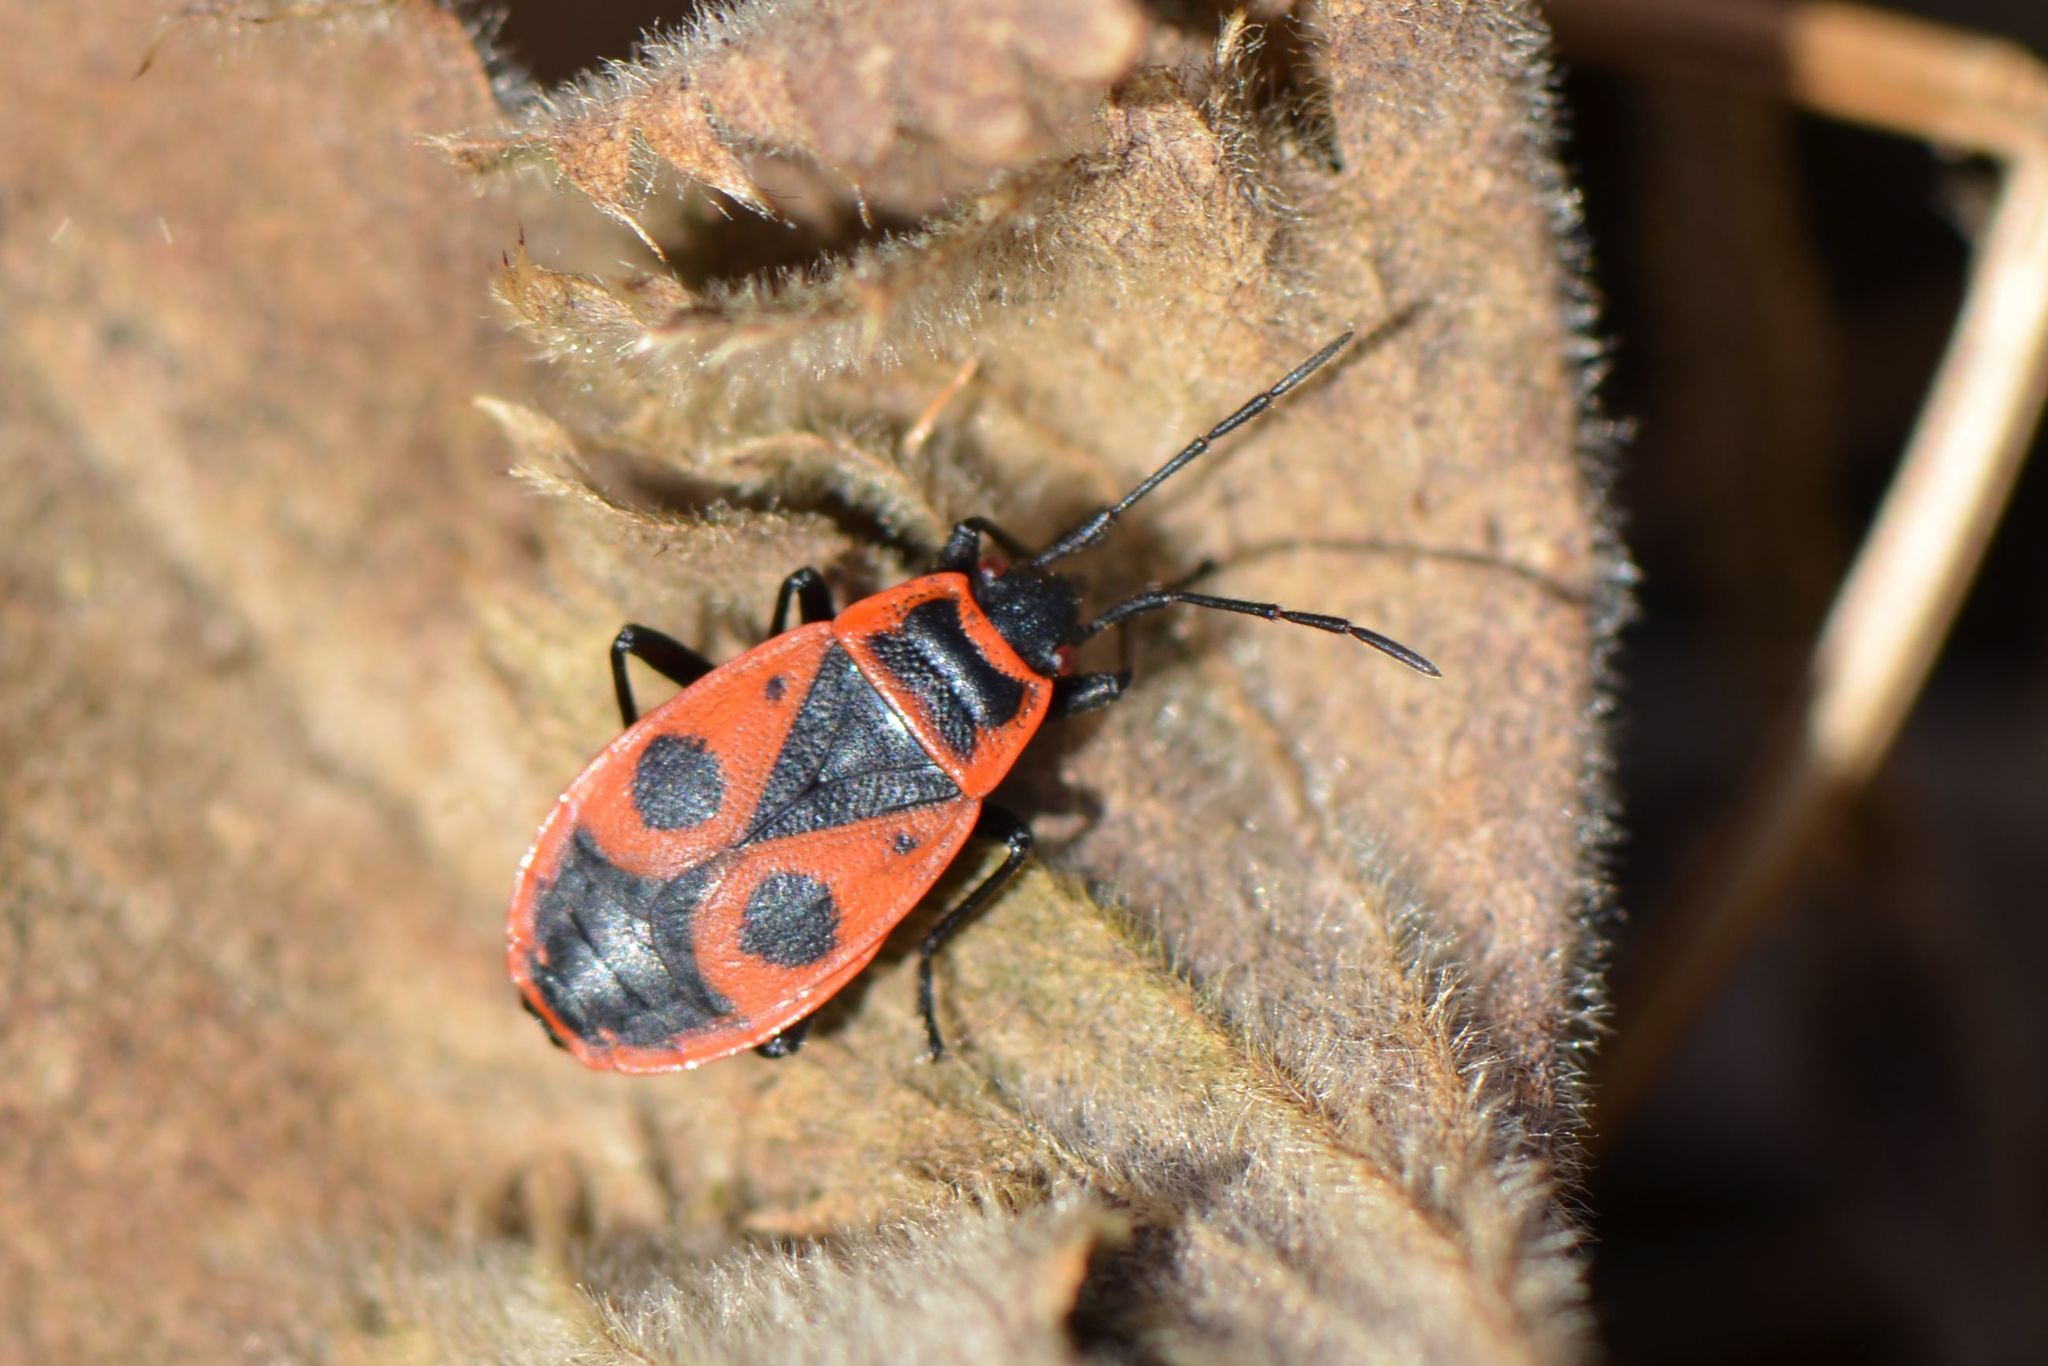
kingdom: Animalia
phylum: Arthropoda
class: Insecta
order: Hemiptera
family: Pyrrhocoridae
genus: Pyrrhocoris
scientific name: Pyrrhocoris apterus
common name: Firebug
